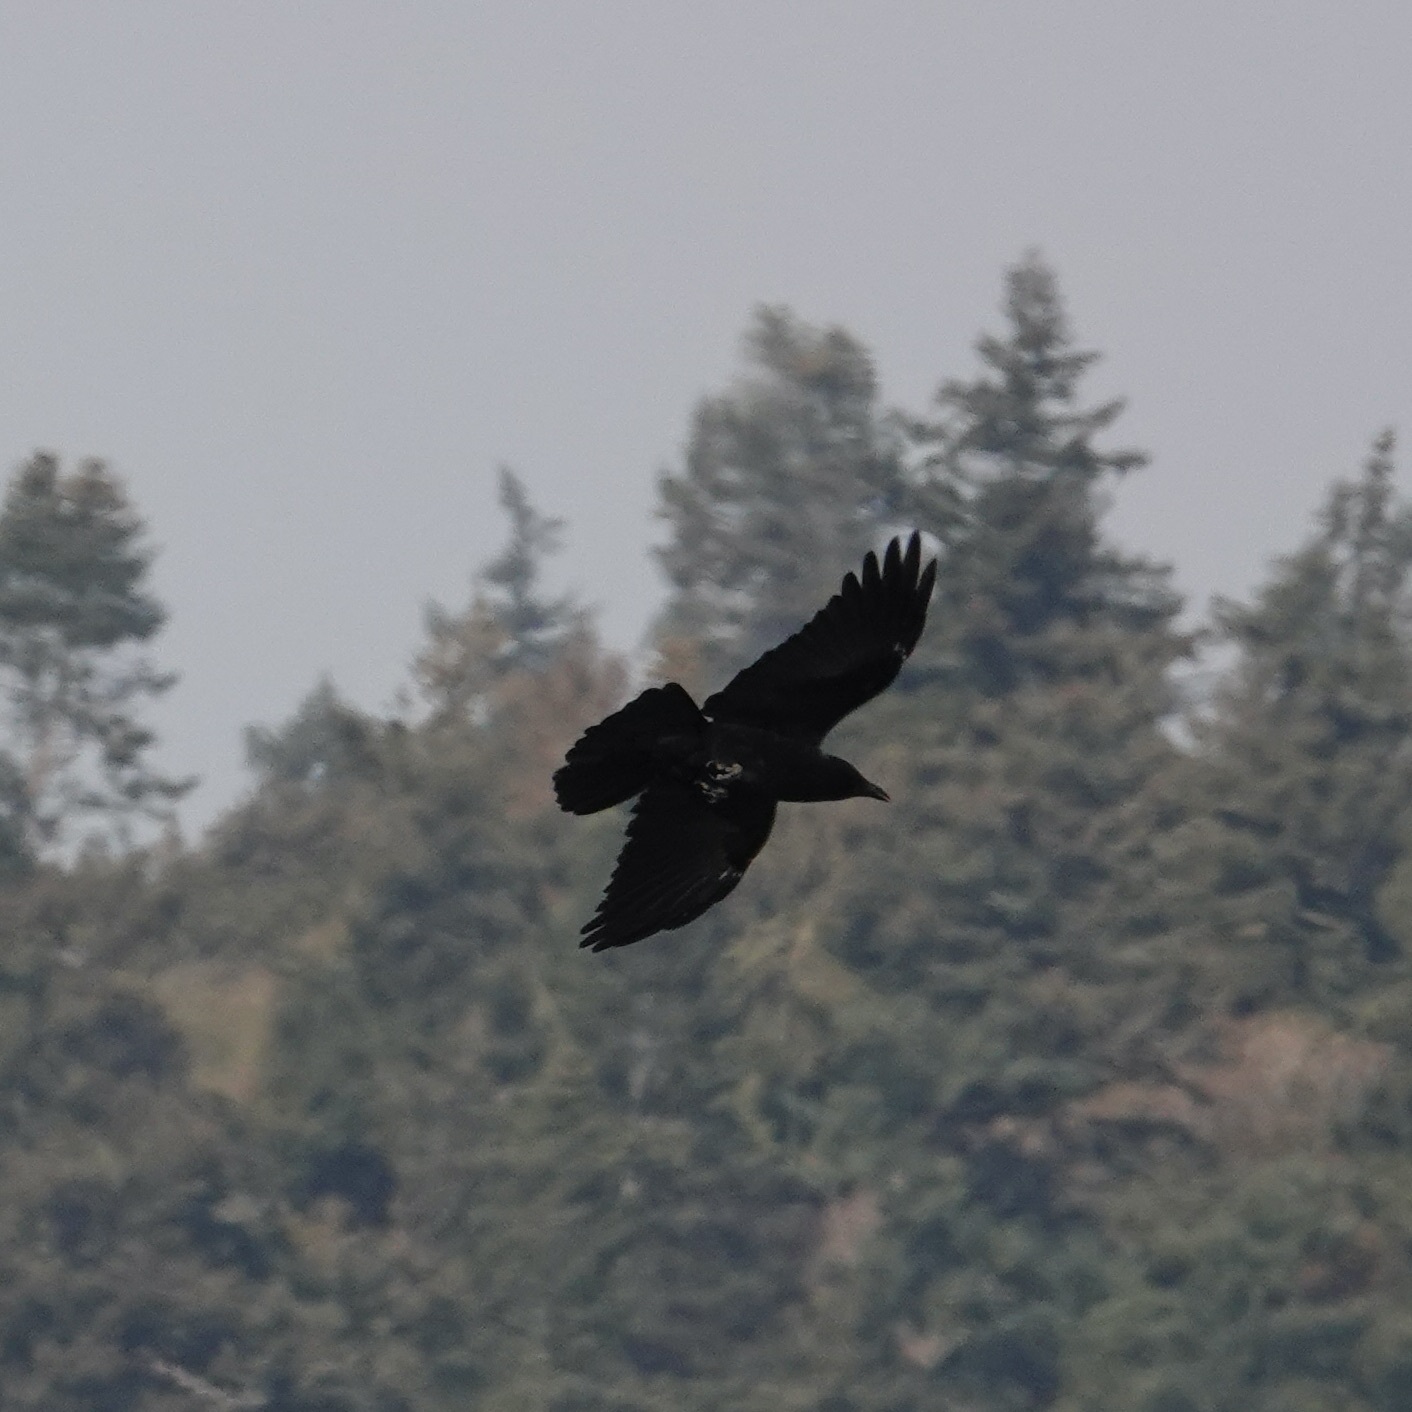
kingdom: Animalia
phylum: Chordata
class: Aves
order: Passeriformes
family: Corvidae
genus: Corvus
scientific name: Corvus brachyrhynchos
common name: American crow
